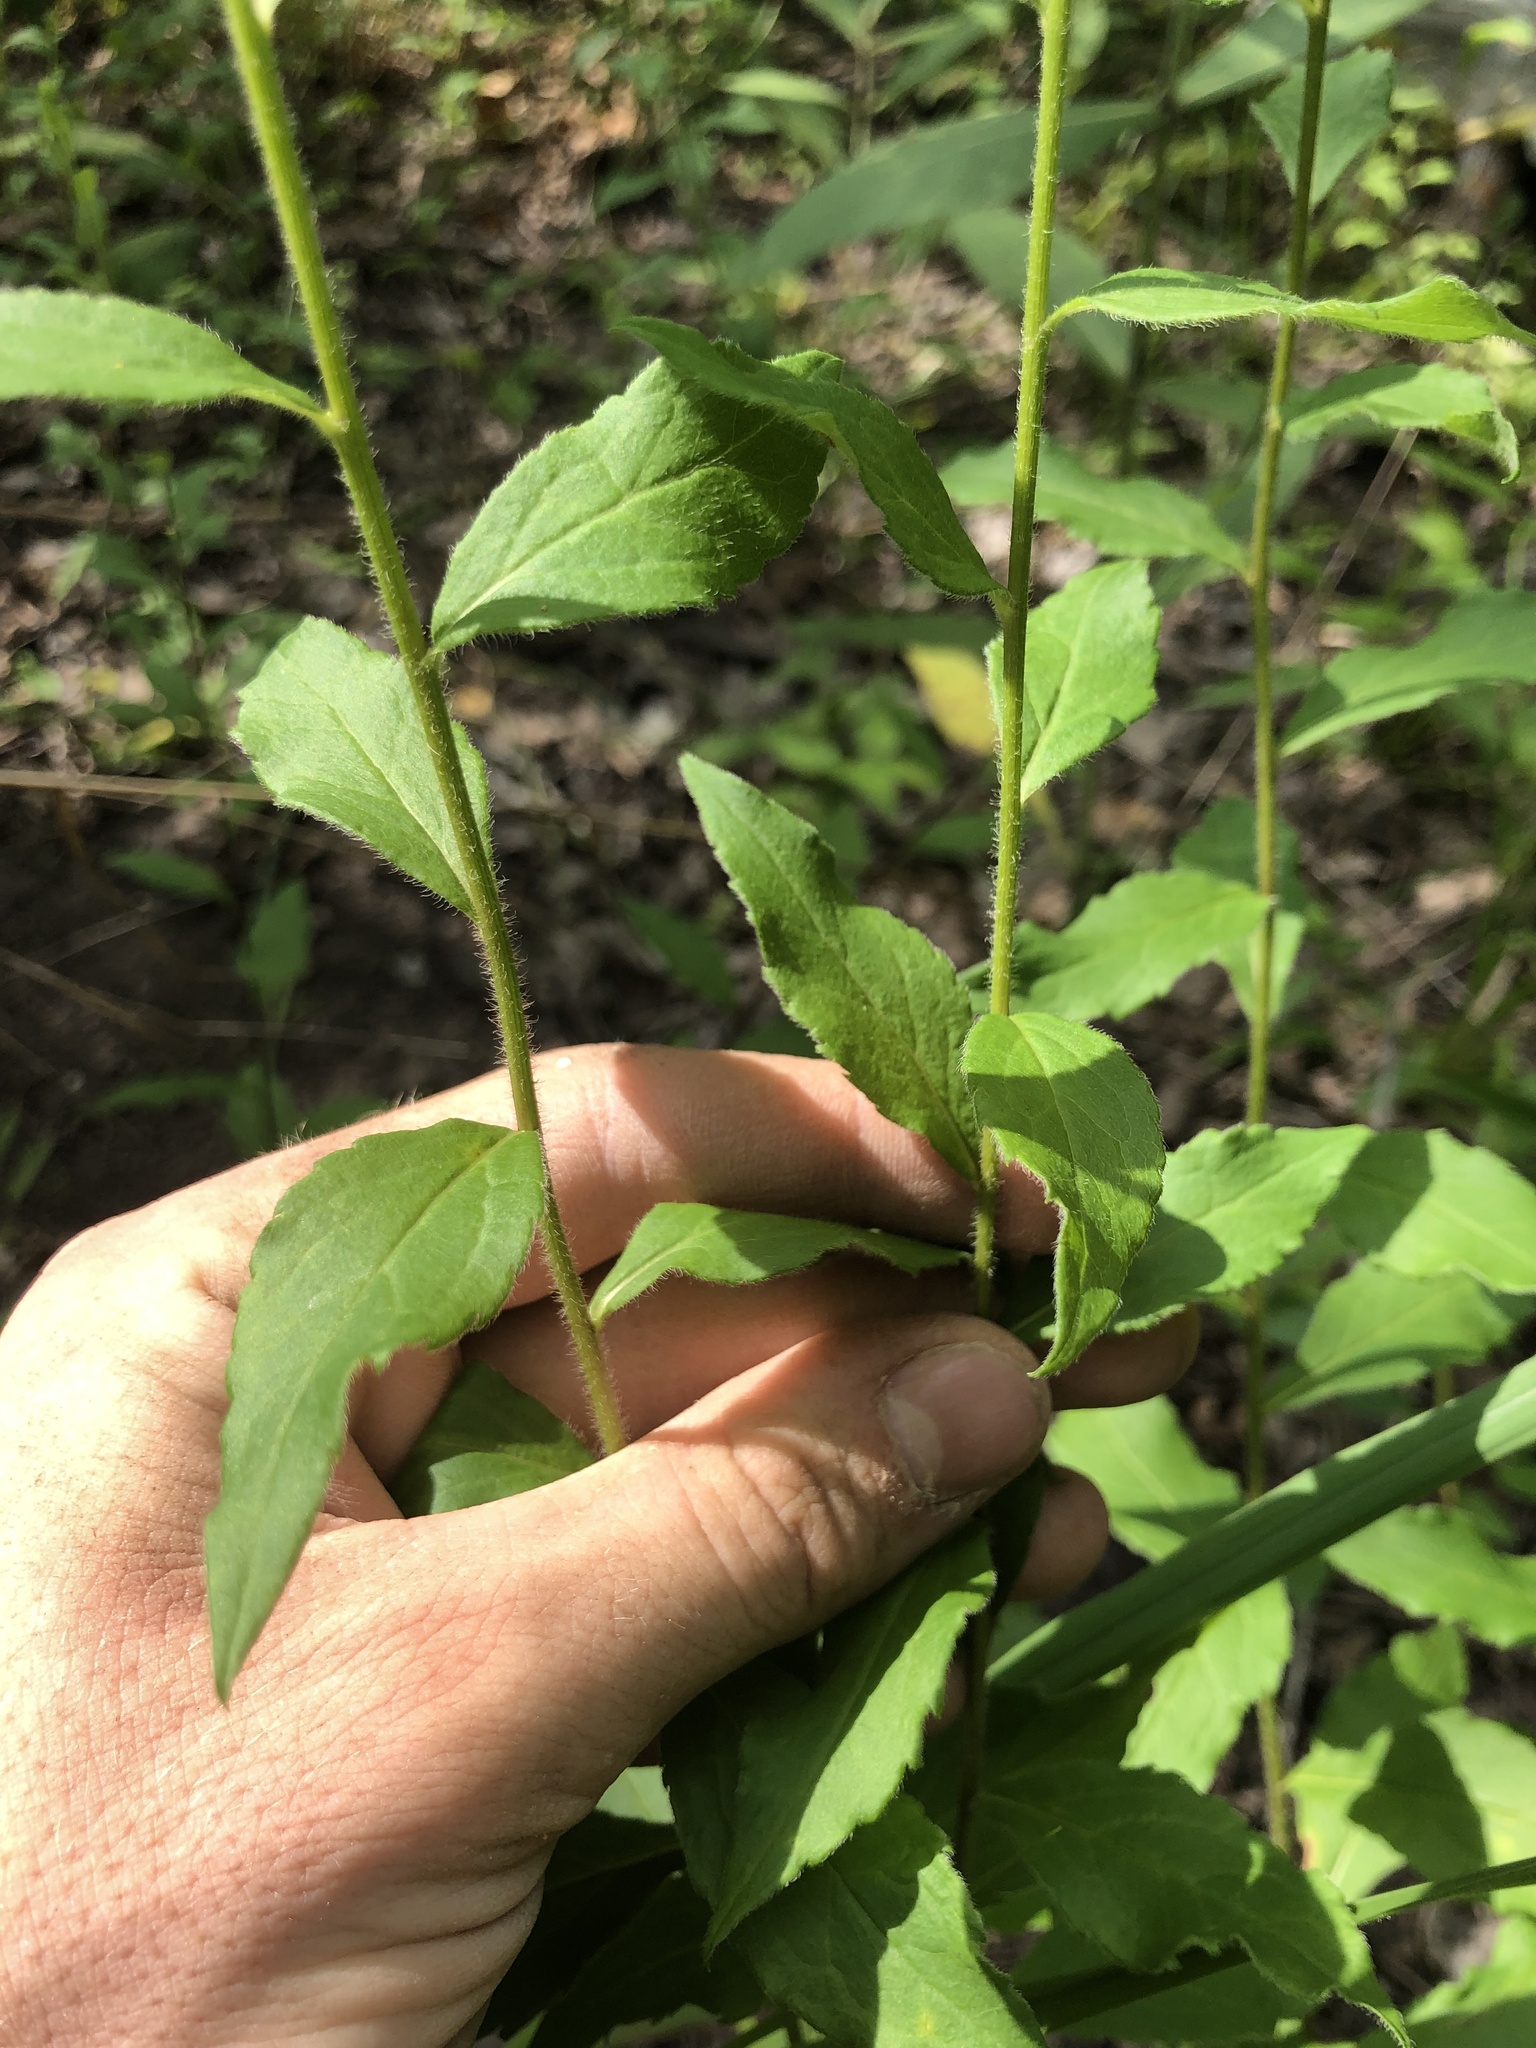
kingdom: Plantae
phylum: Tracheophyta
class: Magnoliopsida
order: Asterales
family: Asteraceae
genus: Solidago
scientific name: Solidago ulmifolia
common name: Elm-leaf goldenrod
